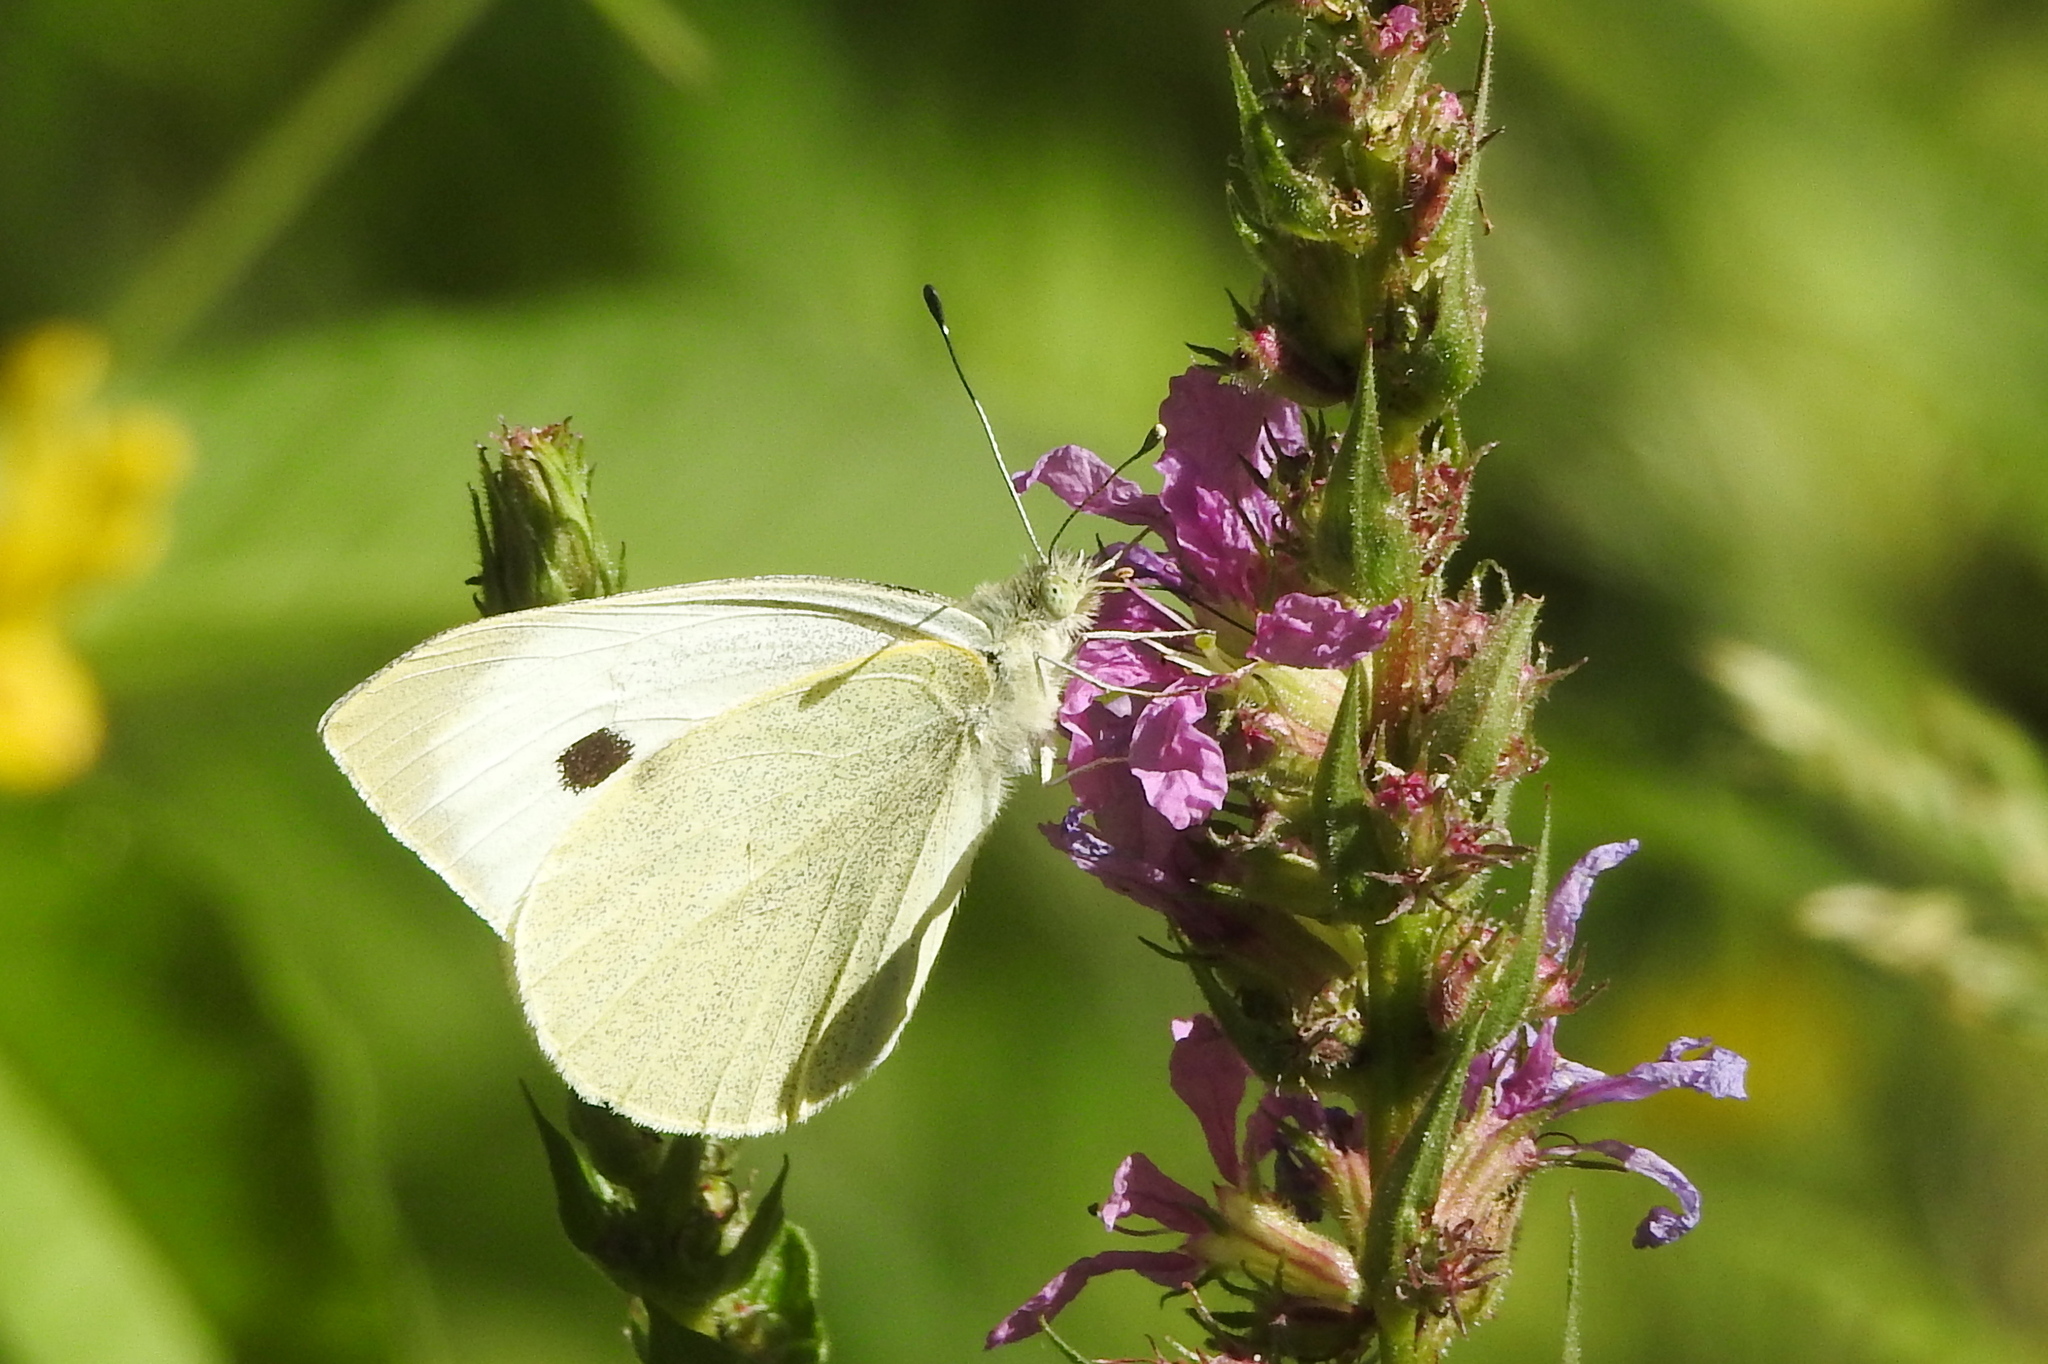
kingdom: Animalia
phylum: Arthropoda
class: Insecta
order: Lepidoptera
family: Pieridae
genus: Pieris
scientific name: Pieris brassicae
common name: Large white
